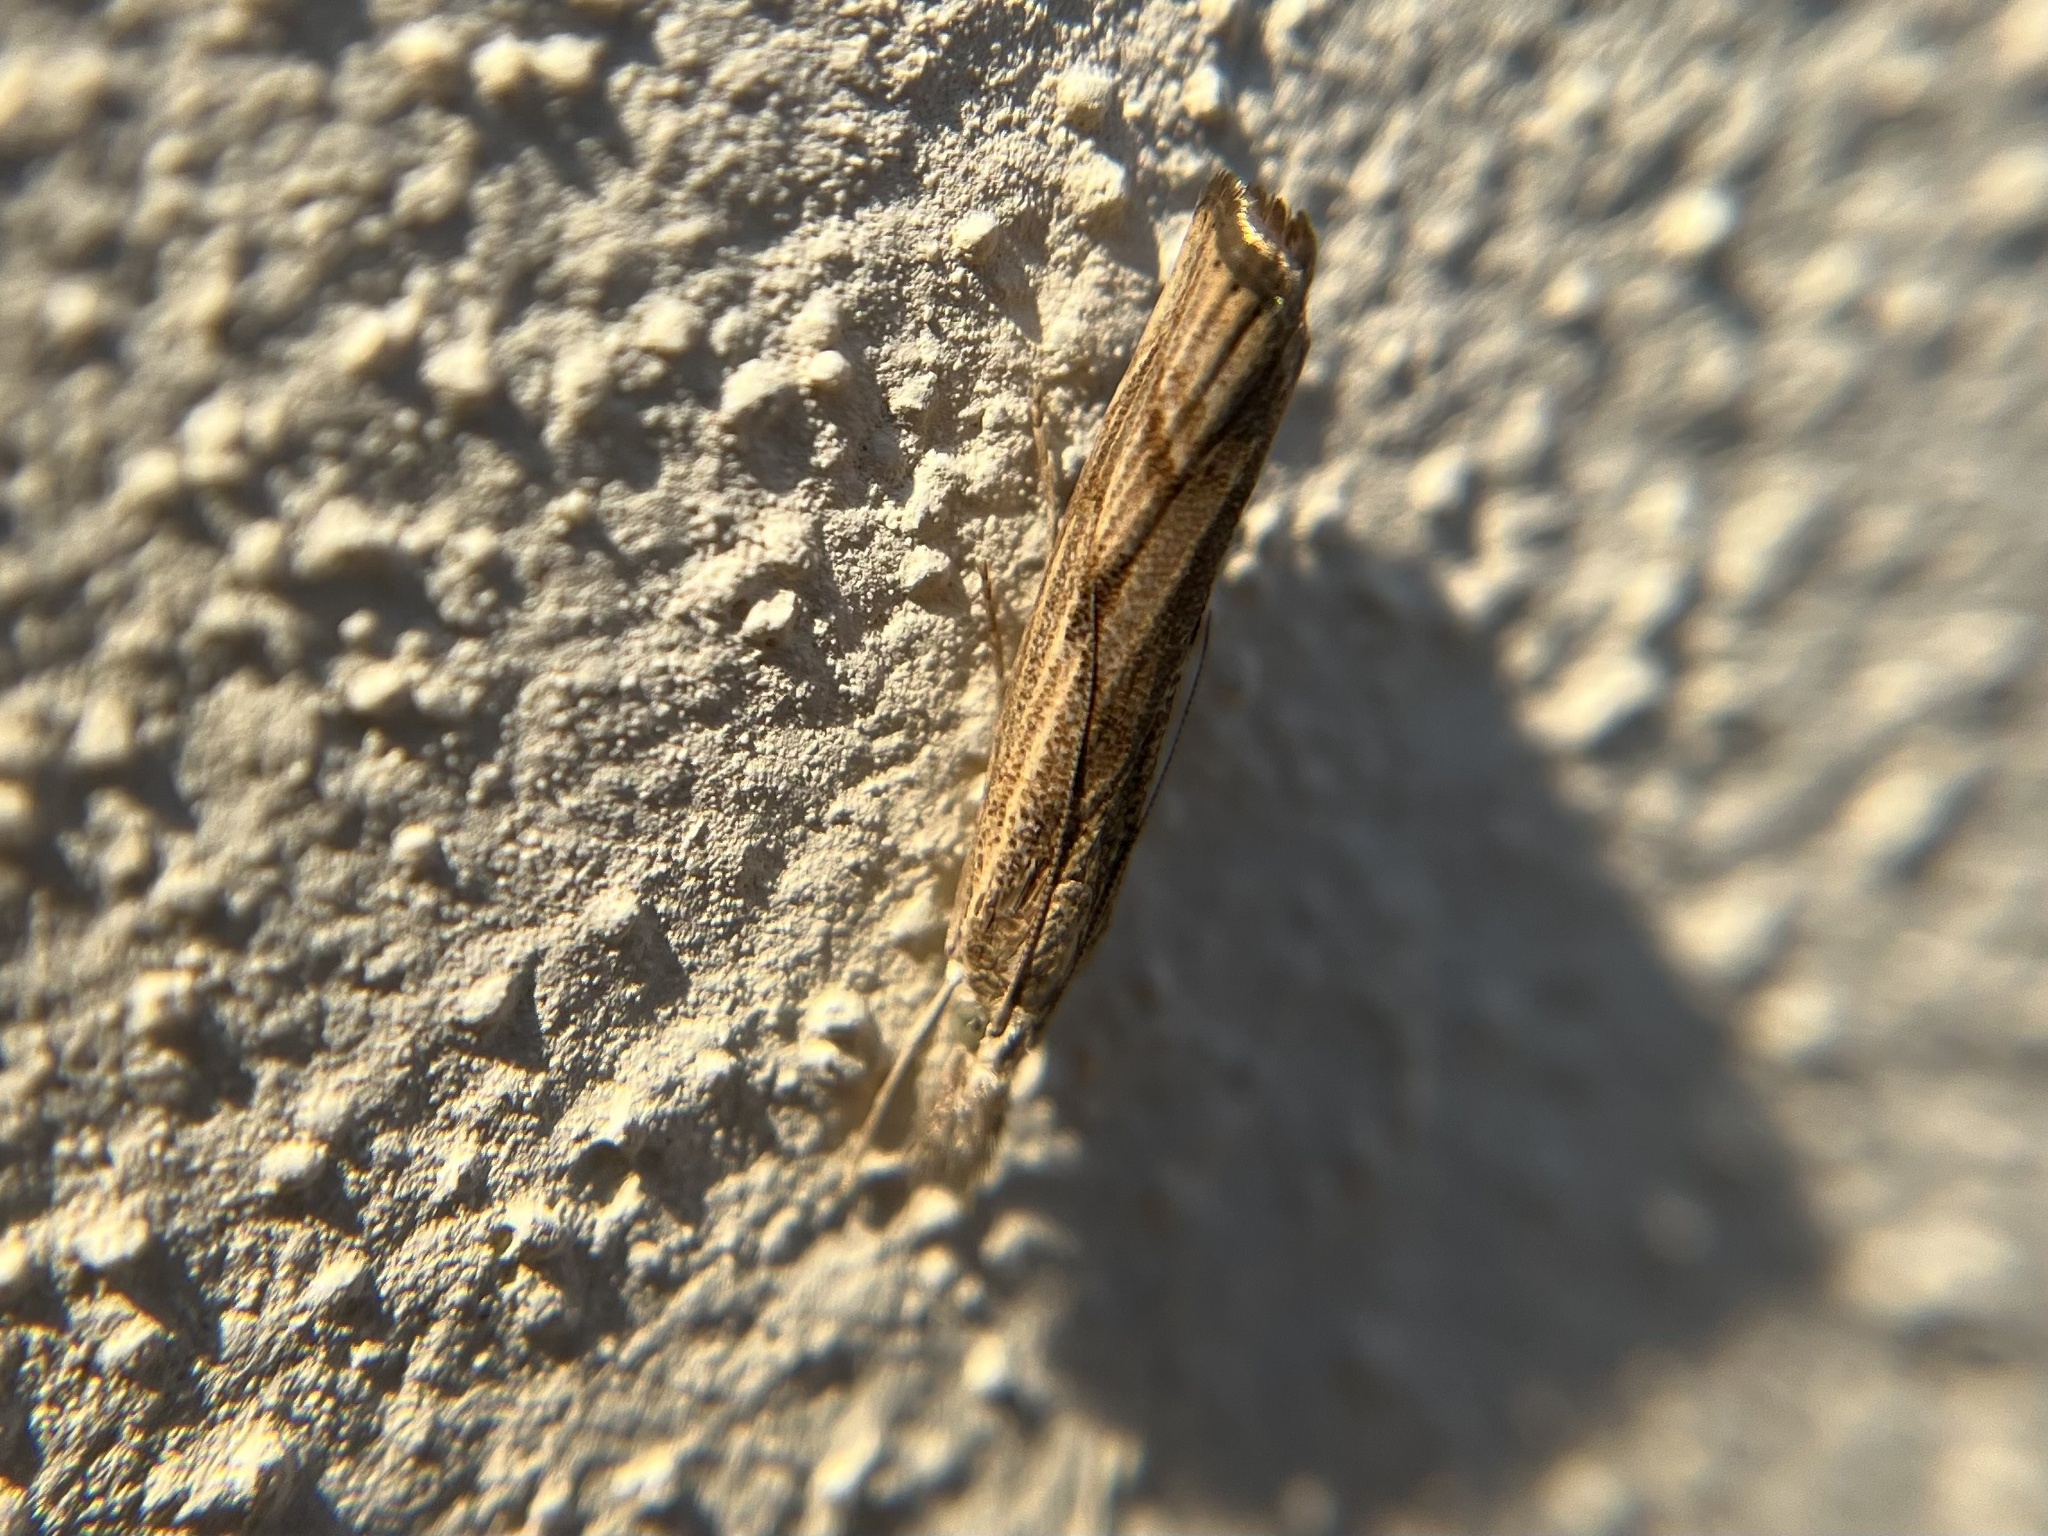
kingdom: Animalia
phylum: Arthropoda
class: Insecta
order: Lepidoptera
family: Crambidae
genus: Agriphila
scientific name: Agriphila geniculea
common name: Elbow-stripe grass-veneer
